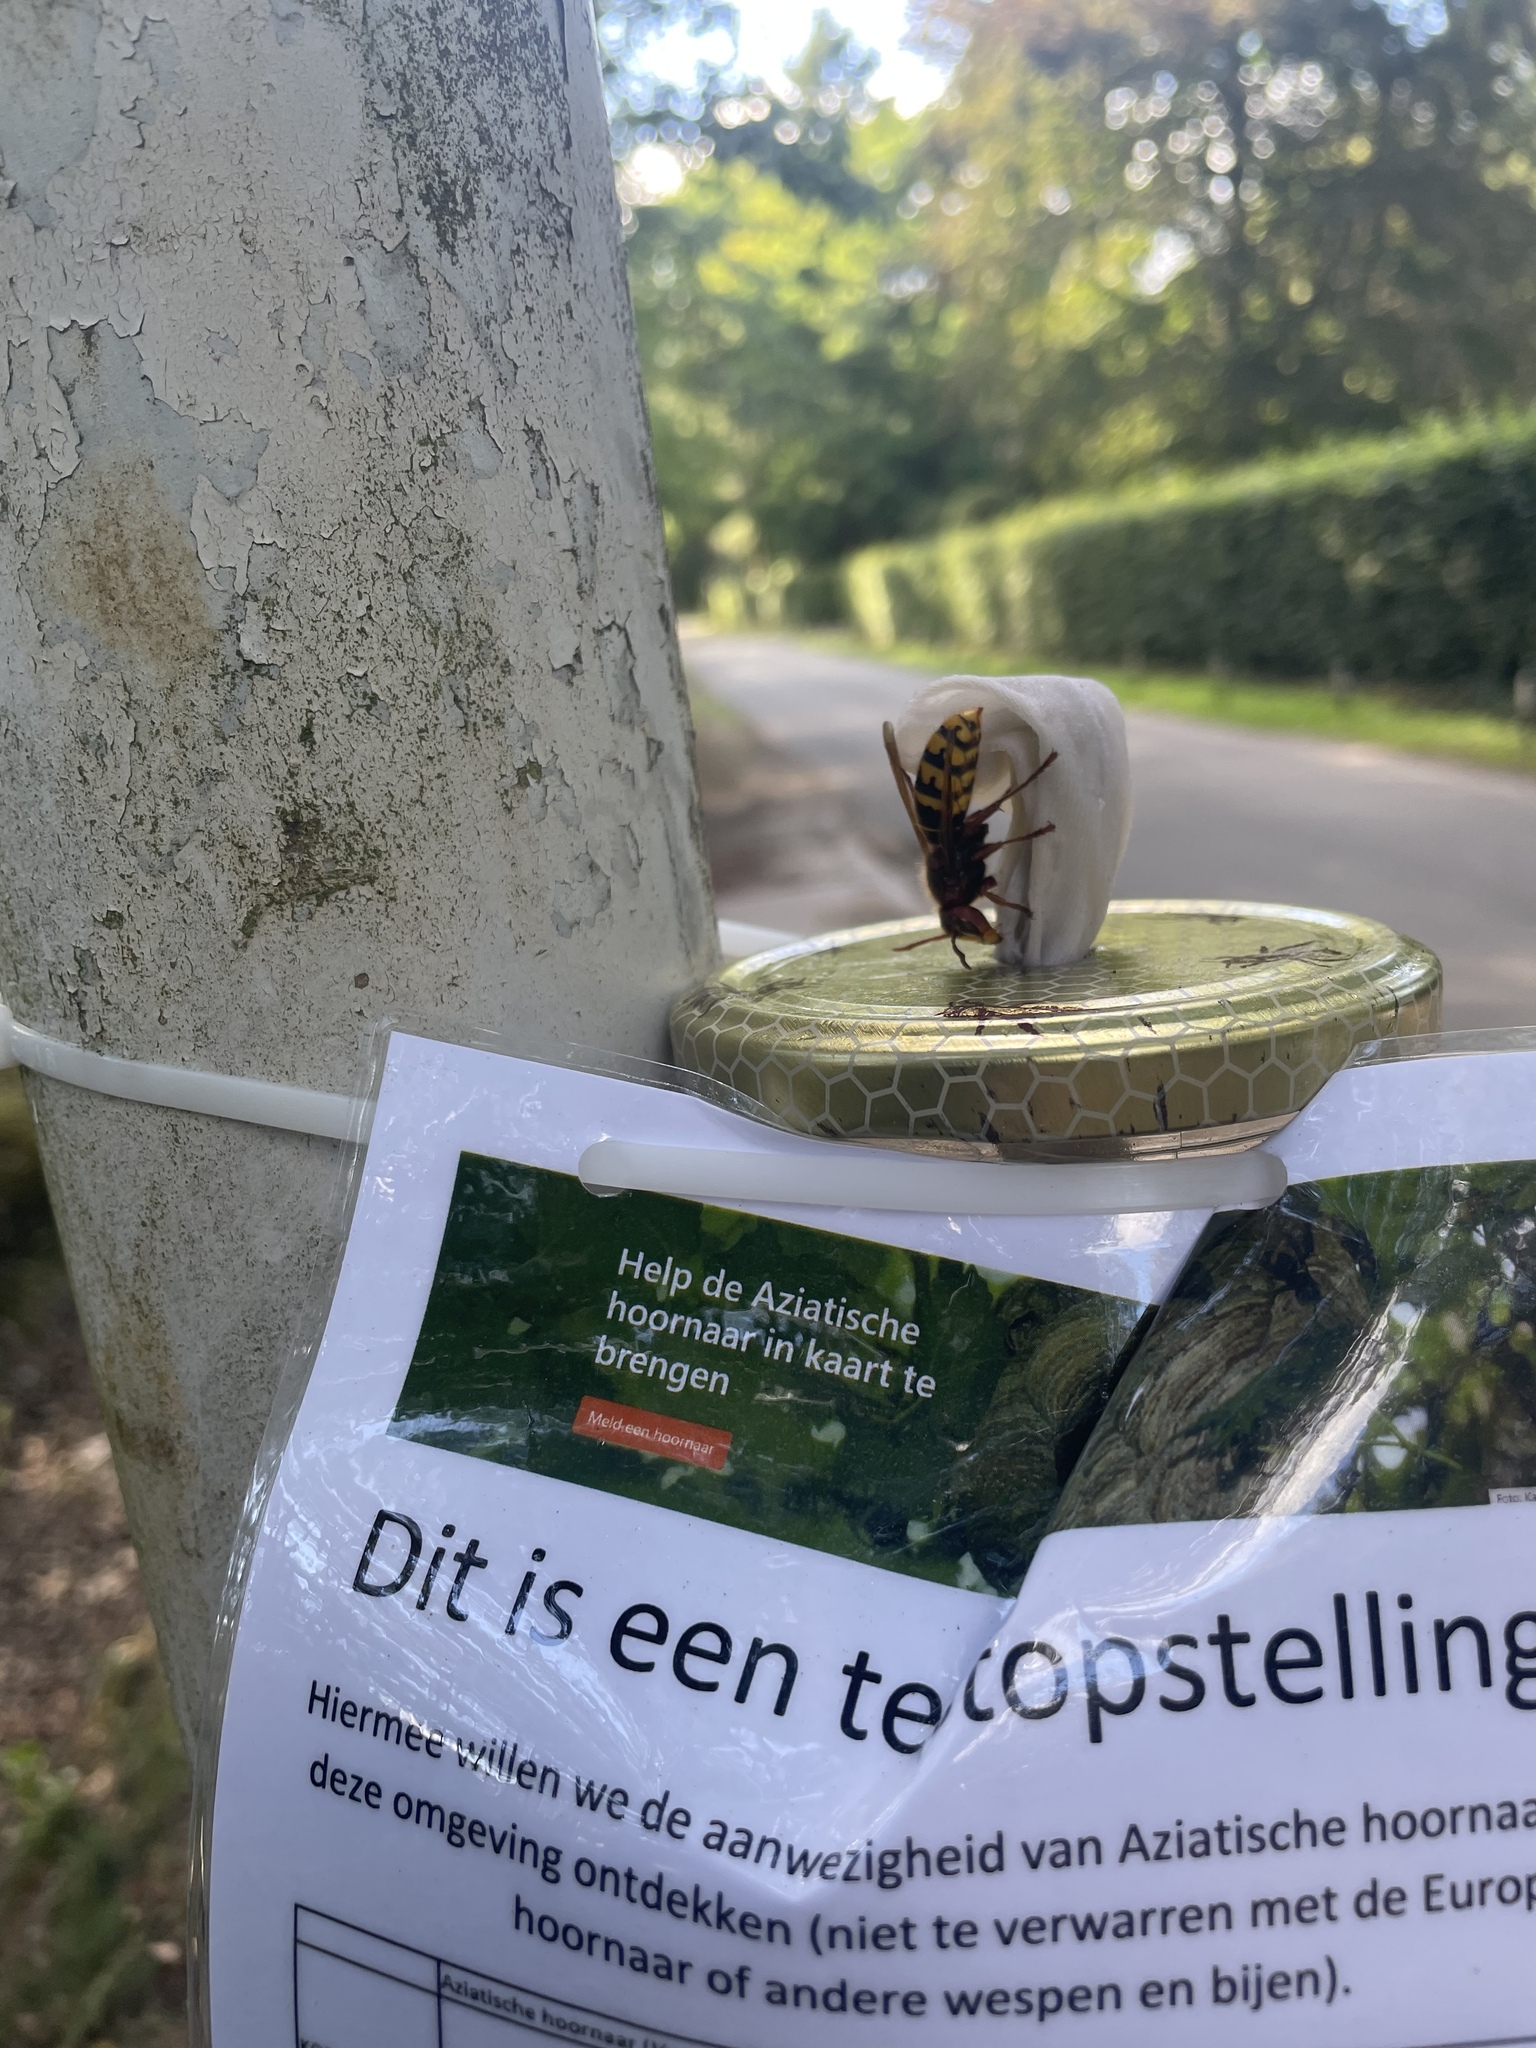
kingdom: Animalia
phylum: Arthropoda
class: Insecta
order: Hymenoptera
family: Vespidae
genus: Vespa
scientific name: Vespa crabro
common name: Hornet
